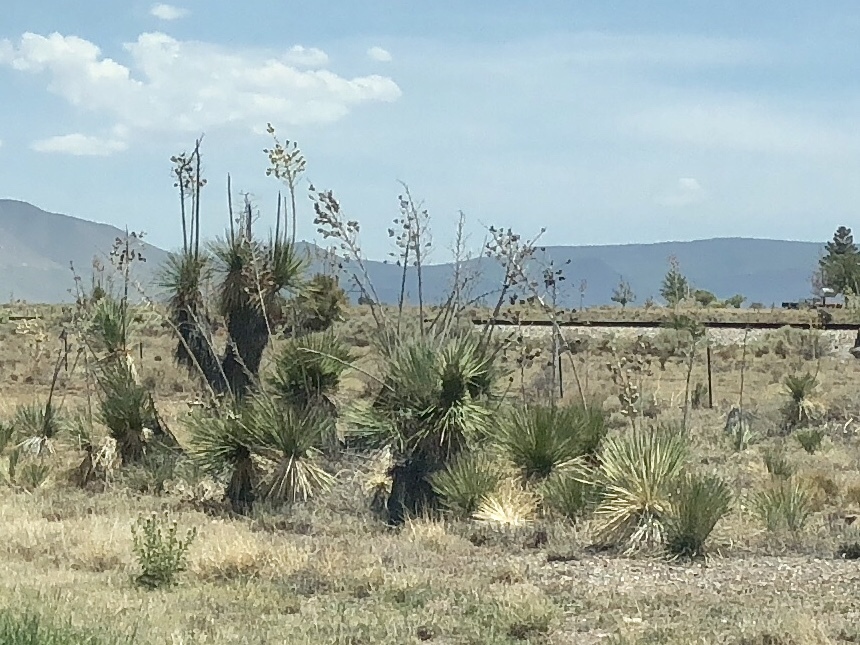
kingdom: Plantae
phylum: Tracheophyta
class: Liliopsida
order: Asparagales
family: Asparagaceae
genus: Yucca
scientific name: Yucca elata
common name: Palmella
